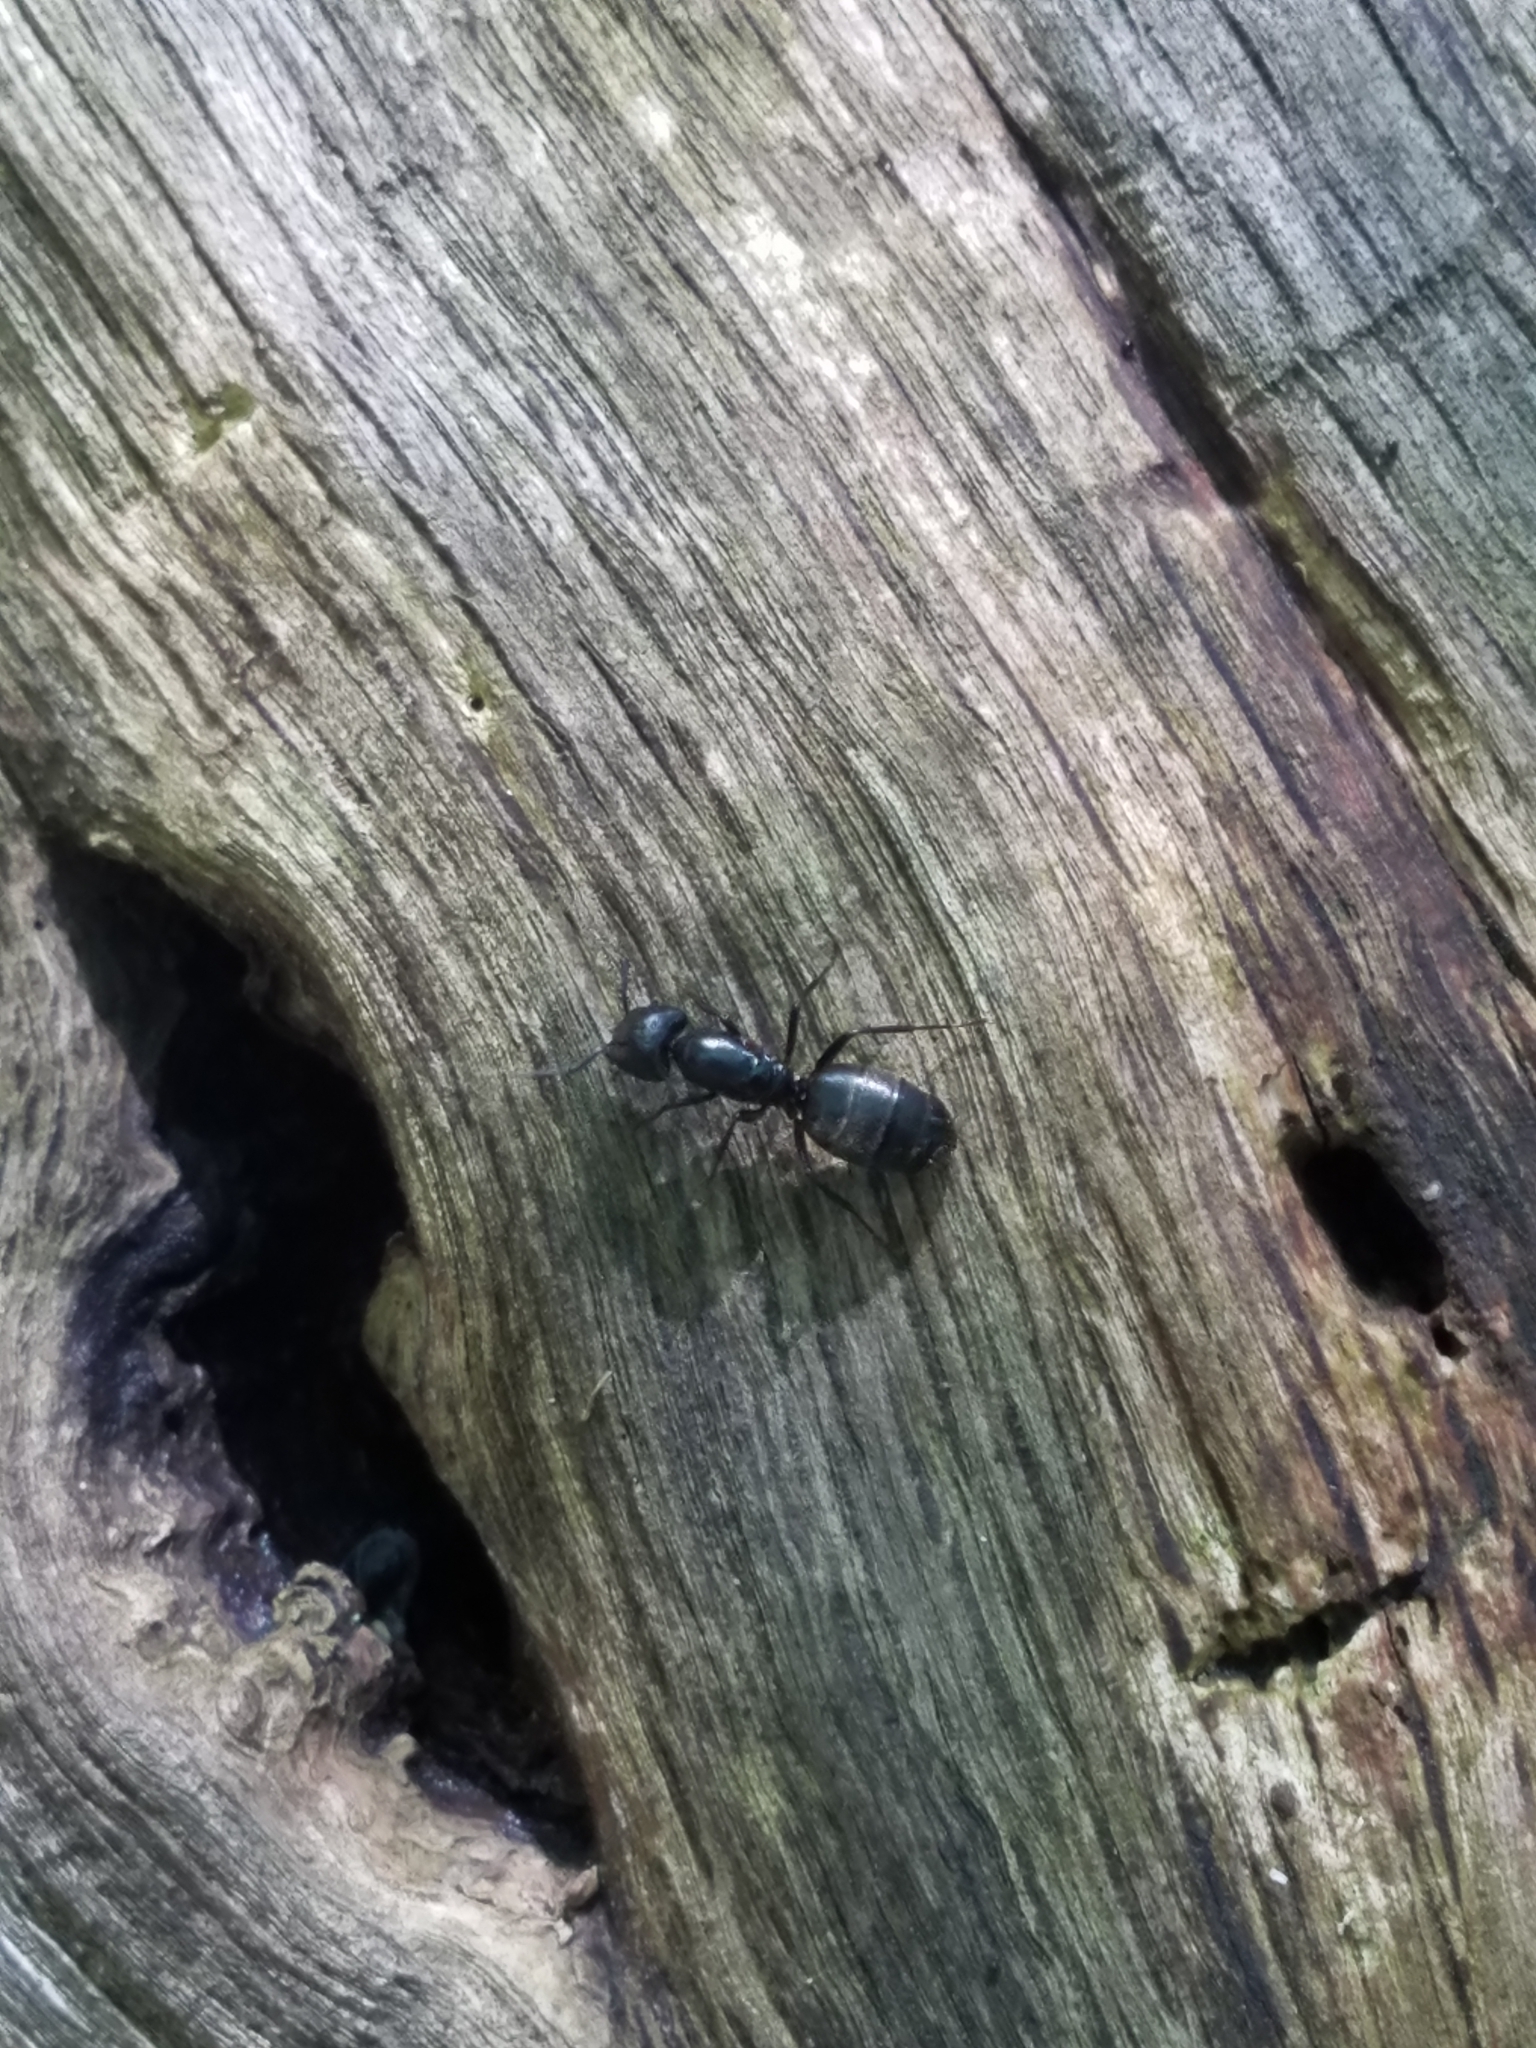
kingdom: Animalia
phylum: Arthropoda
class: Insecta
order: Hymenoptera
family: Formicidae
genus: Camponotus
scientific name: Camponotus pennsylvanicus
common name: Black carpenter ant
